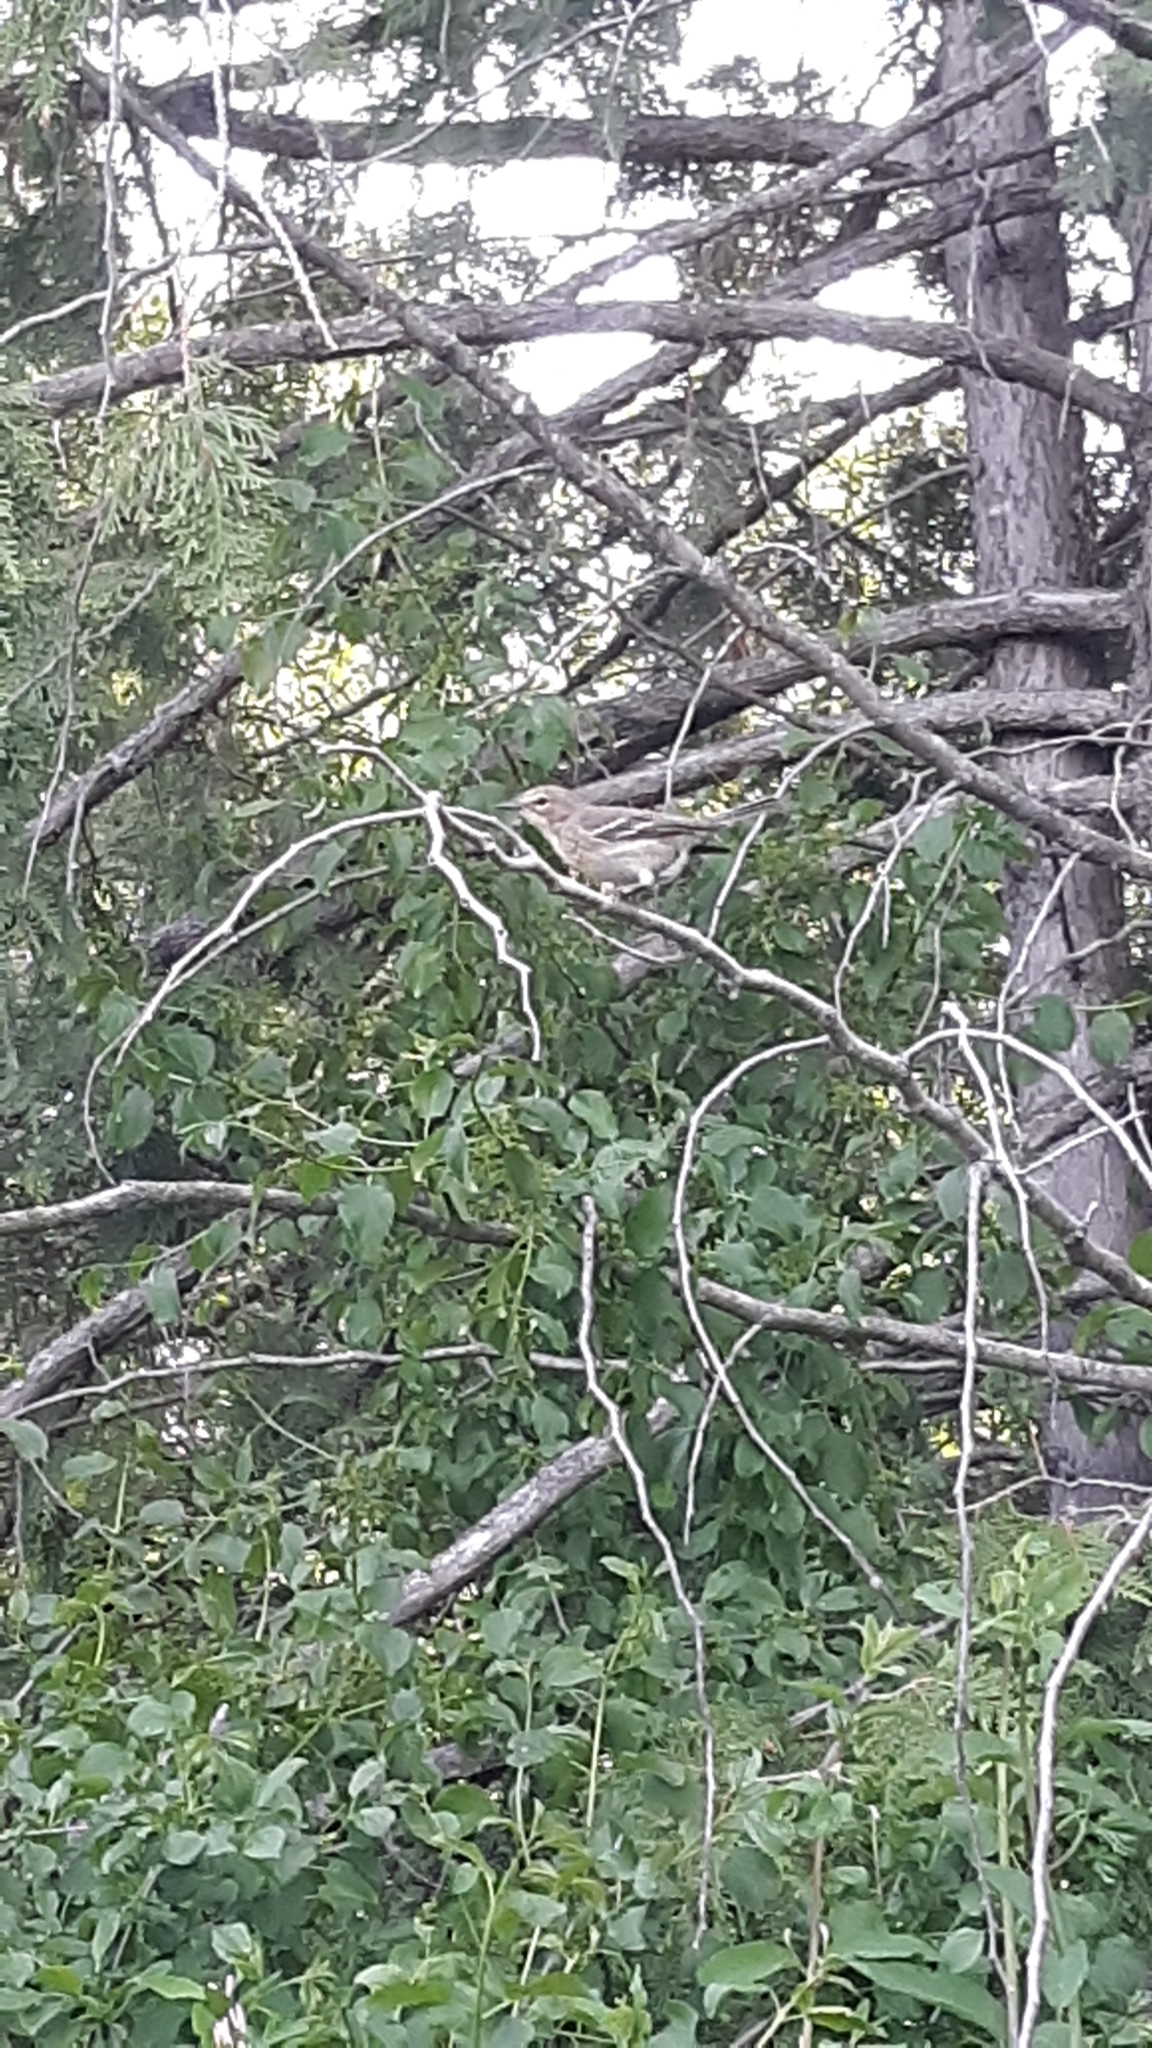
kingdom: Animalia
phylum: Chordata
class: Aves
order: Passeriformes
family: Parulidae
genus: Setophaga
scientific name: Setophaga pinus
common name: Pine warbler
